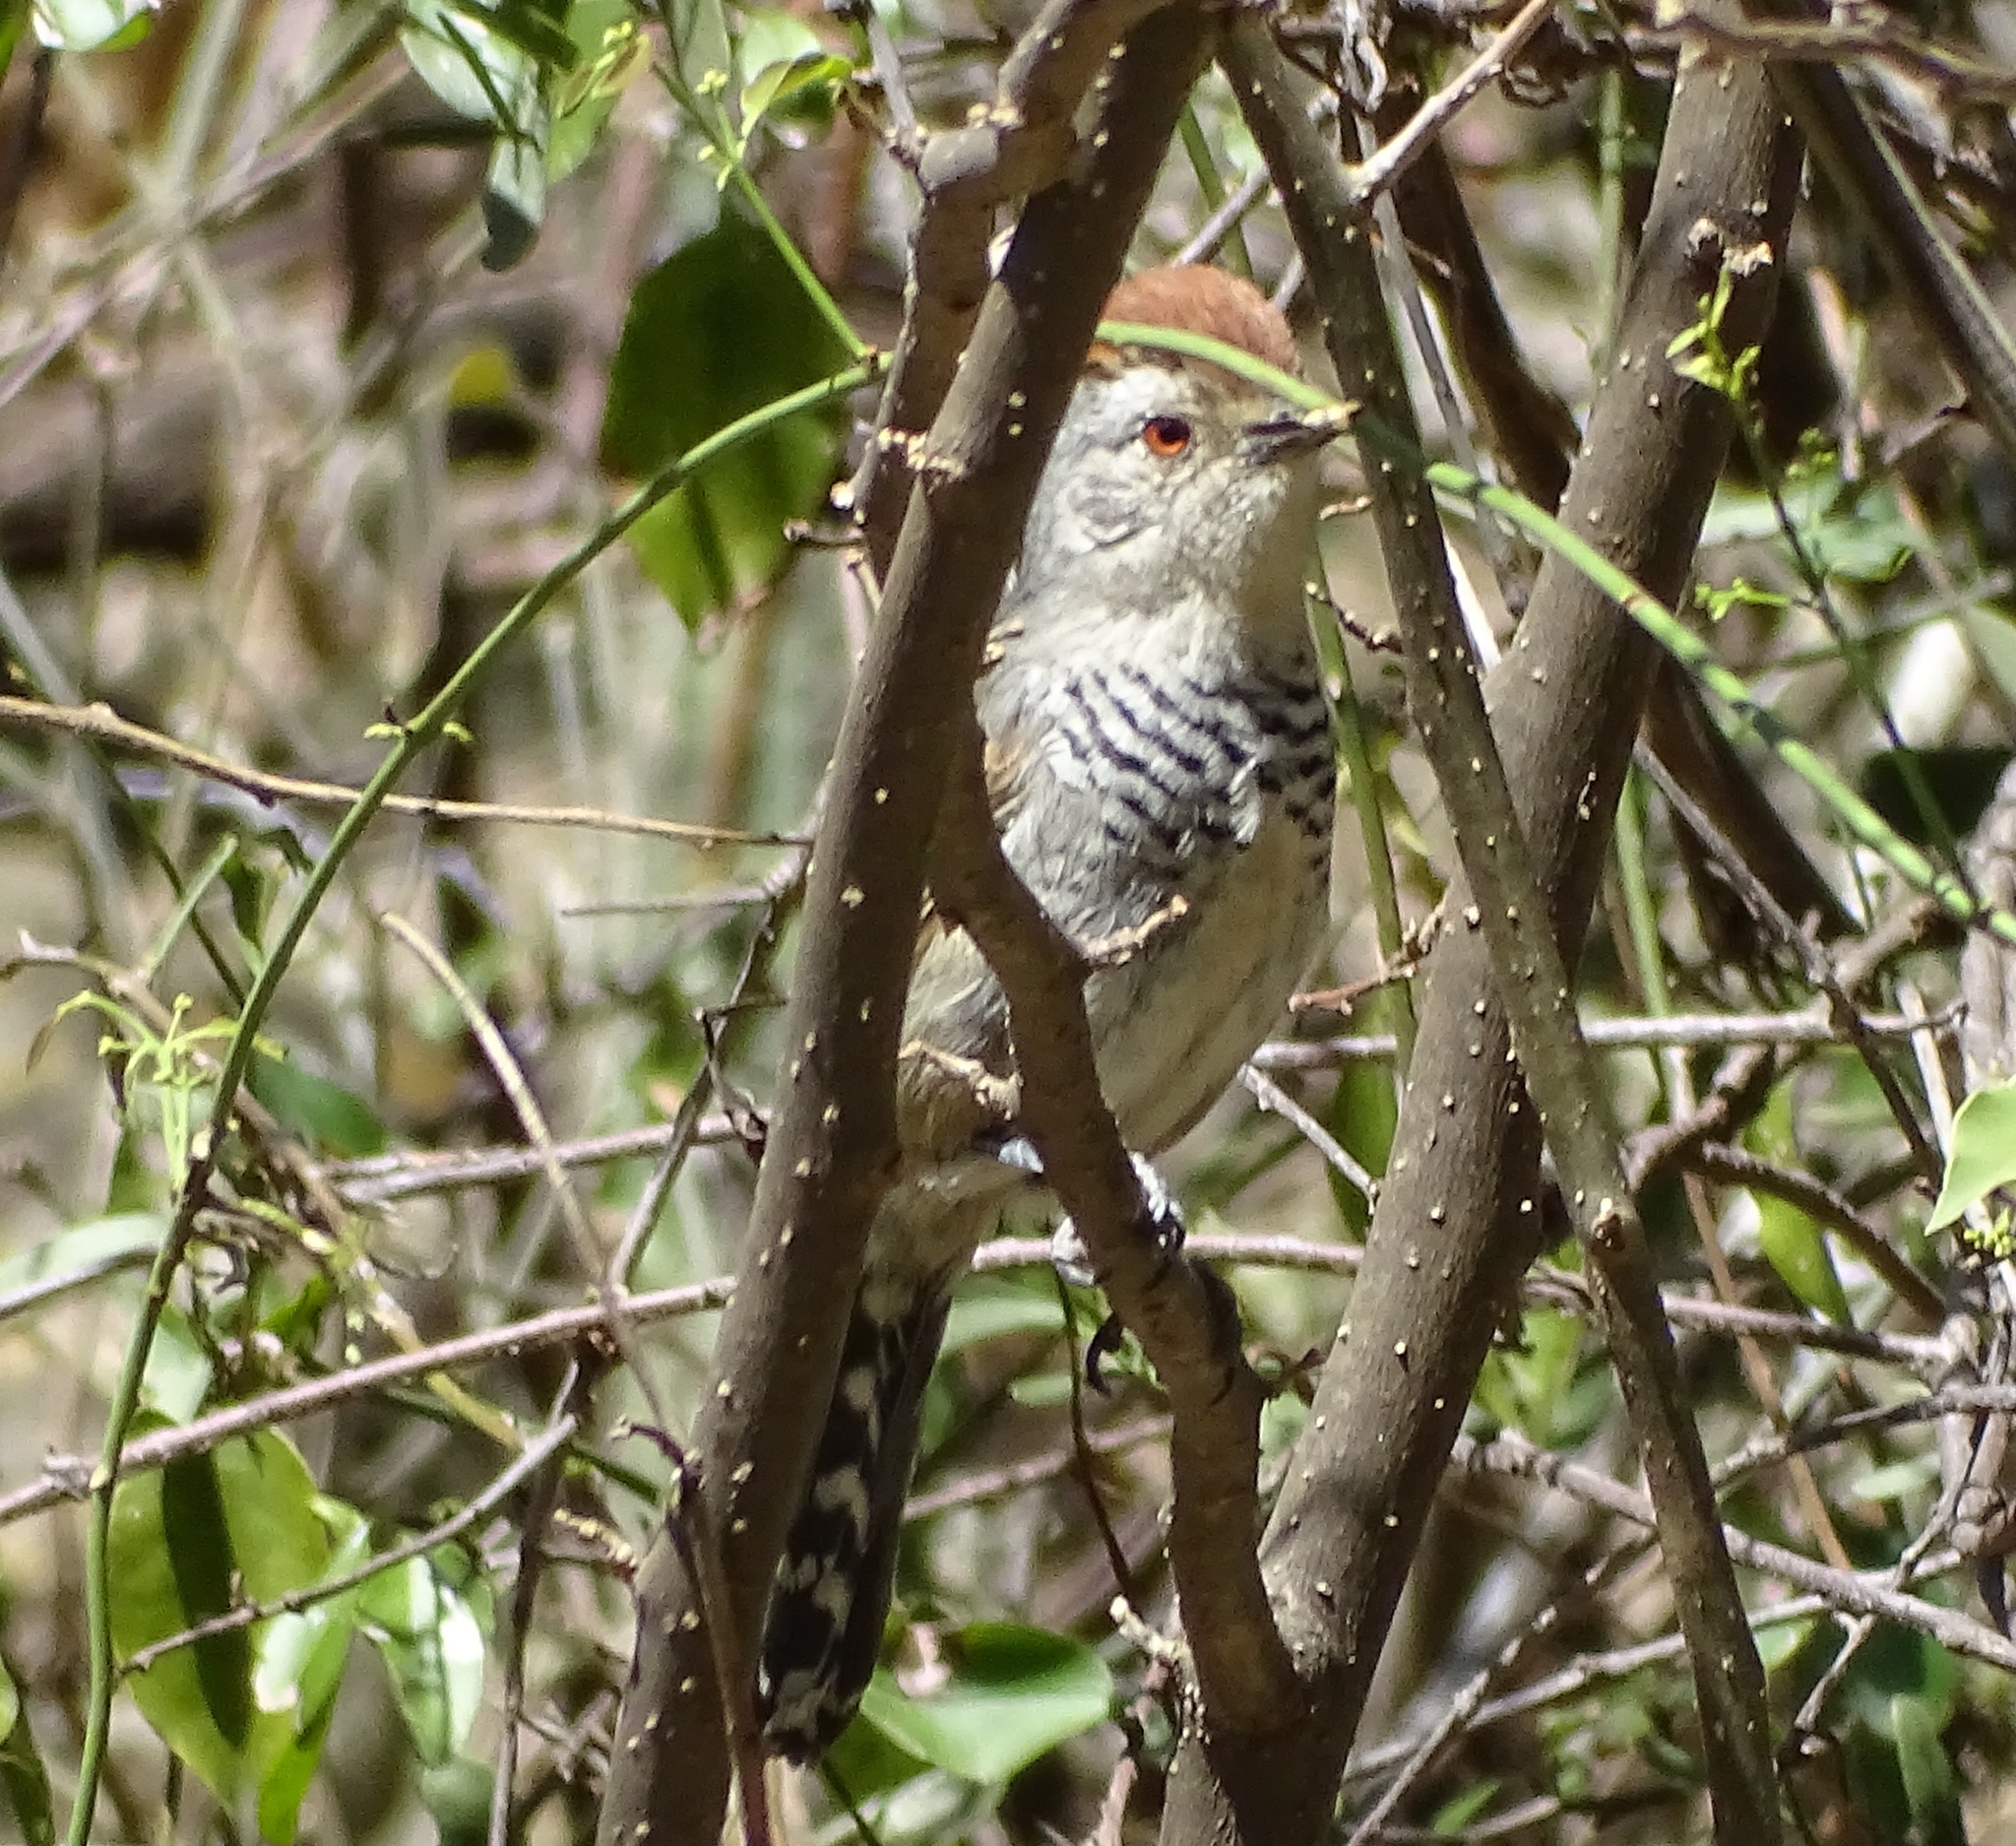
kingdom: Animalia
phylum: Chordata
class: Aves
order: Passeriformes
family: Thamnophilidae
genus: Thamnophilus
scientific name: Thamnophilus ruficapillus
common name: Rufous-capped antshrike
